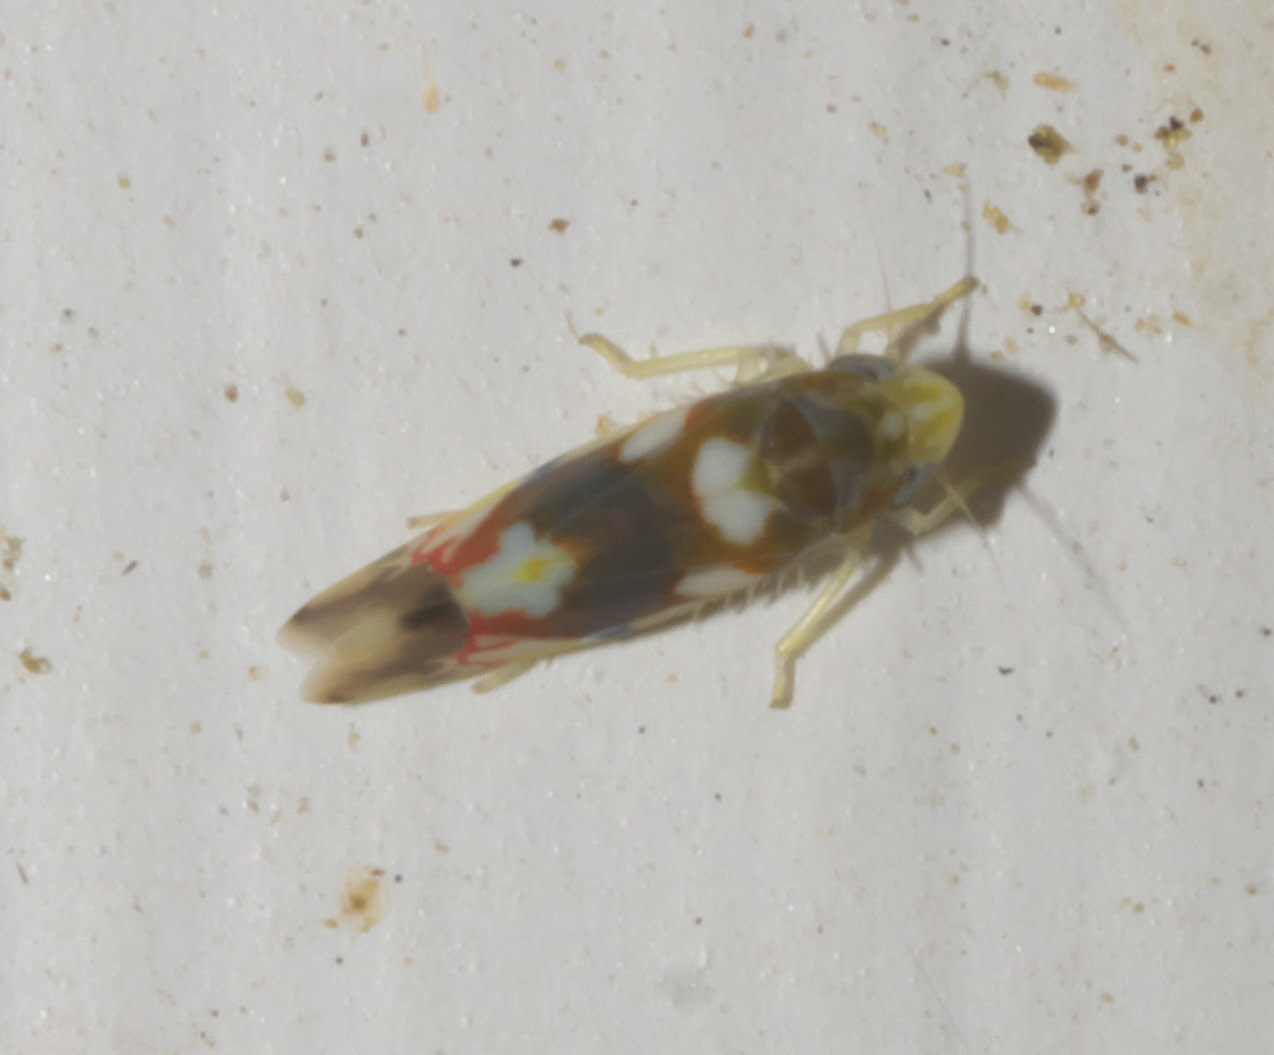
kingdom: Animalia
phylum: Arthropoda
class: Insecta
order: Hemiptera
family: Cicadellidae
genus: Erythroneura
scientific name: Erythroneura elegans
